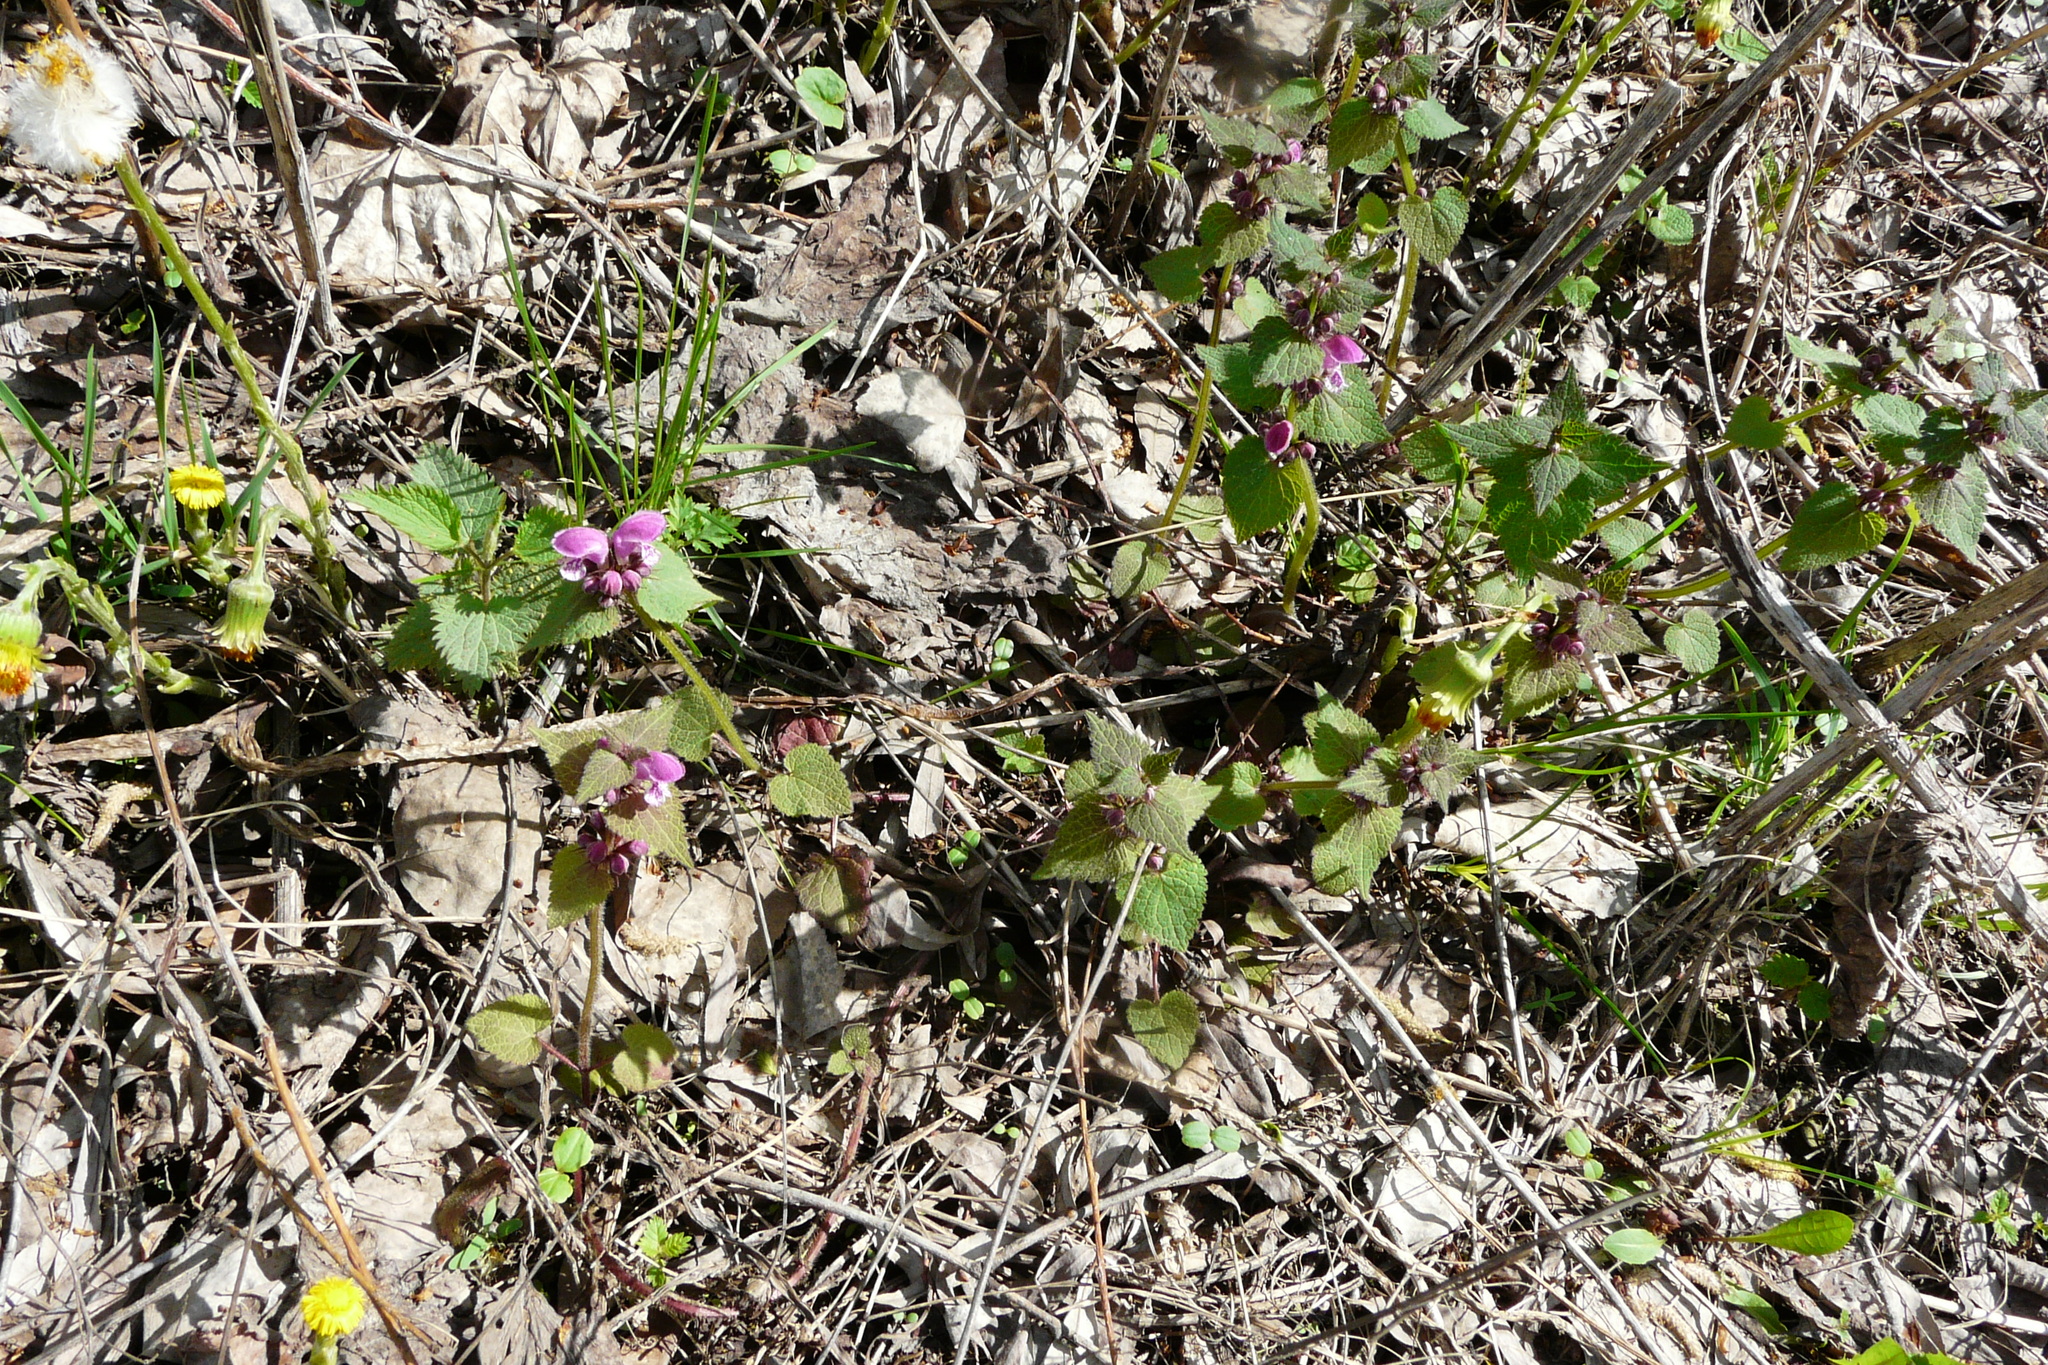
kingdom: Plantae
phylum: Tracheophyta
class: Magnoliopsida
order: Lamiales
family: Lamiaceae
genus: Lamium
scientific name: Lamium maculatum
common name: Spotted dead-nettle
